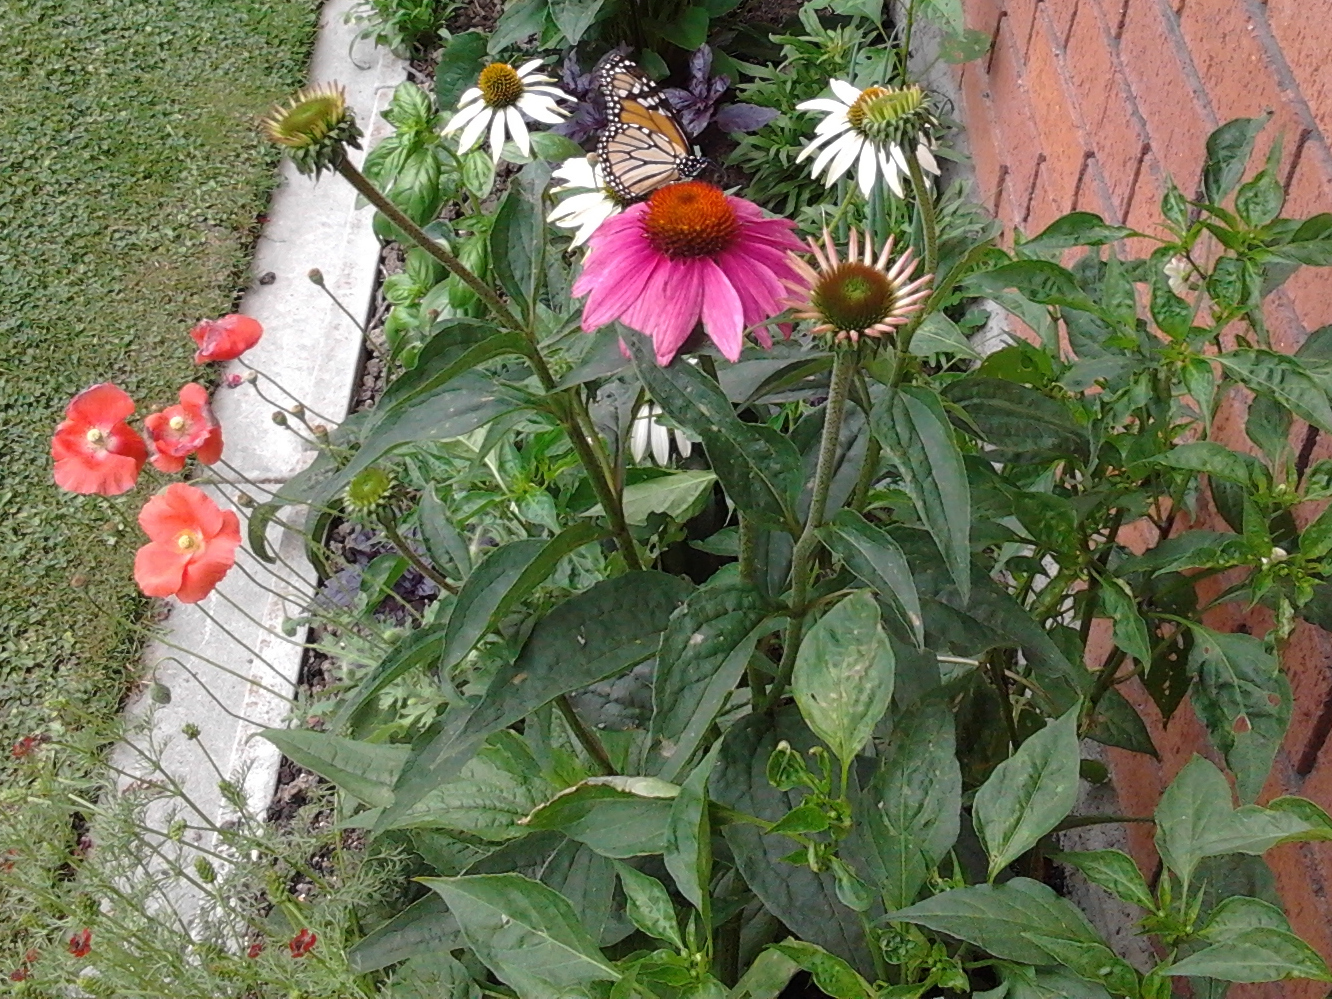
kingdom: Animalia
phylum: Arthropoda
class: Insecta
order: Lepidoptera
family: Nymphalidae
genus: Danaus
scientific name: Danaus plexippus
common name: Monarch
